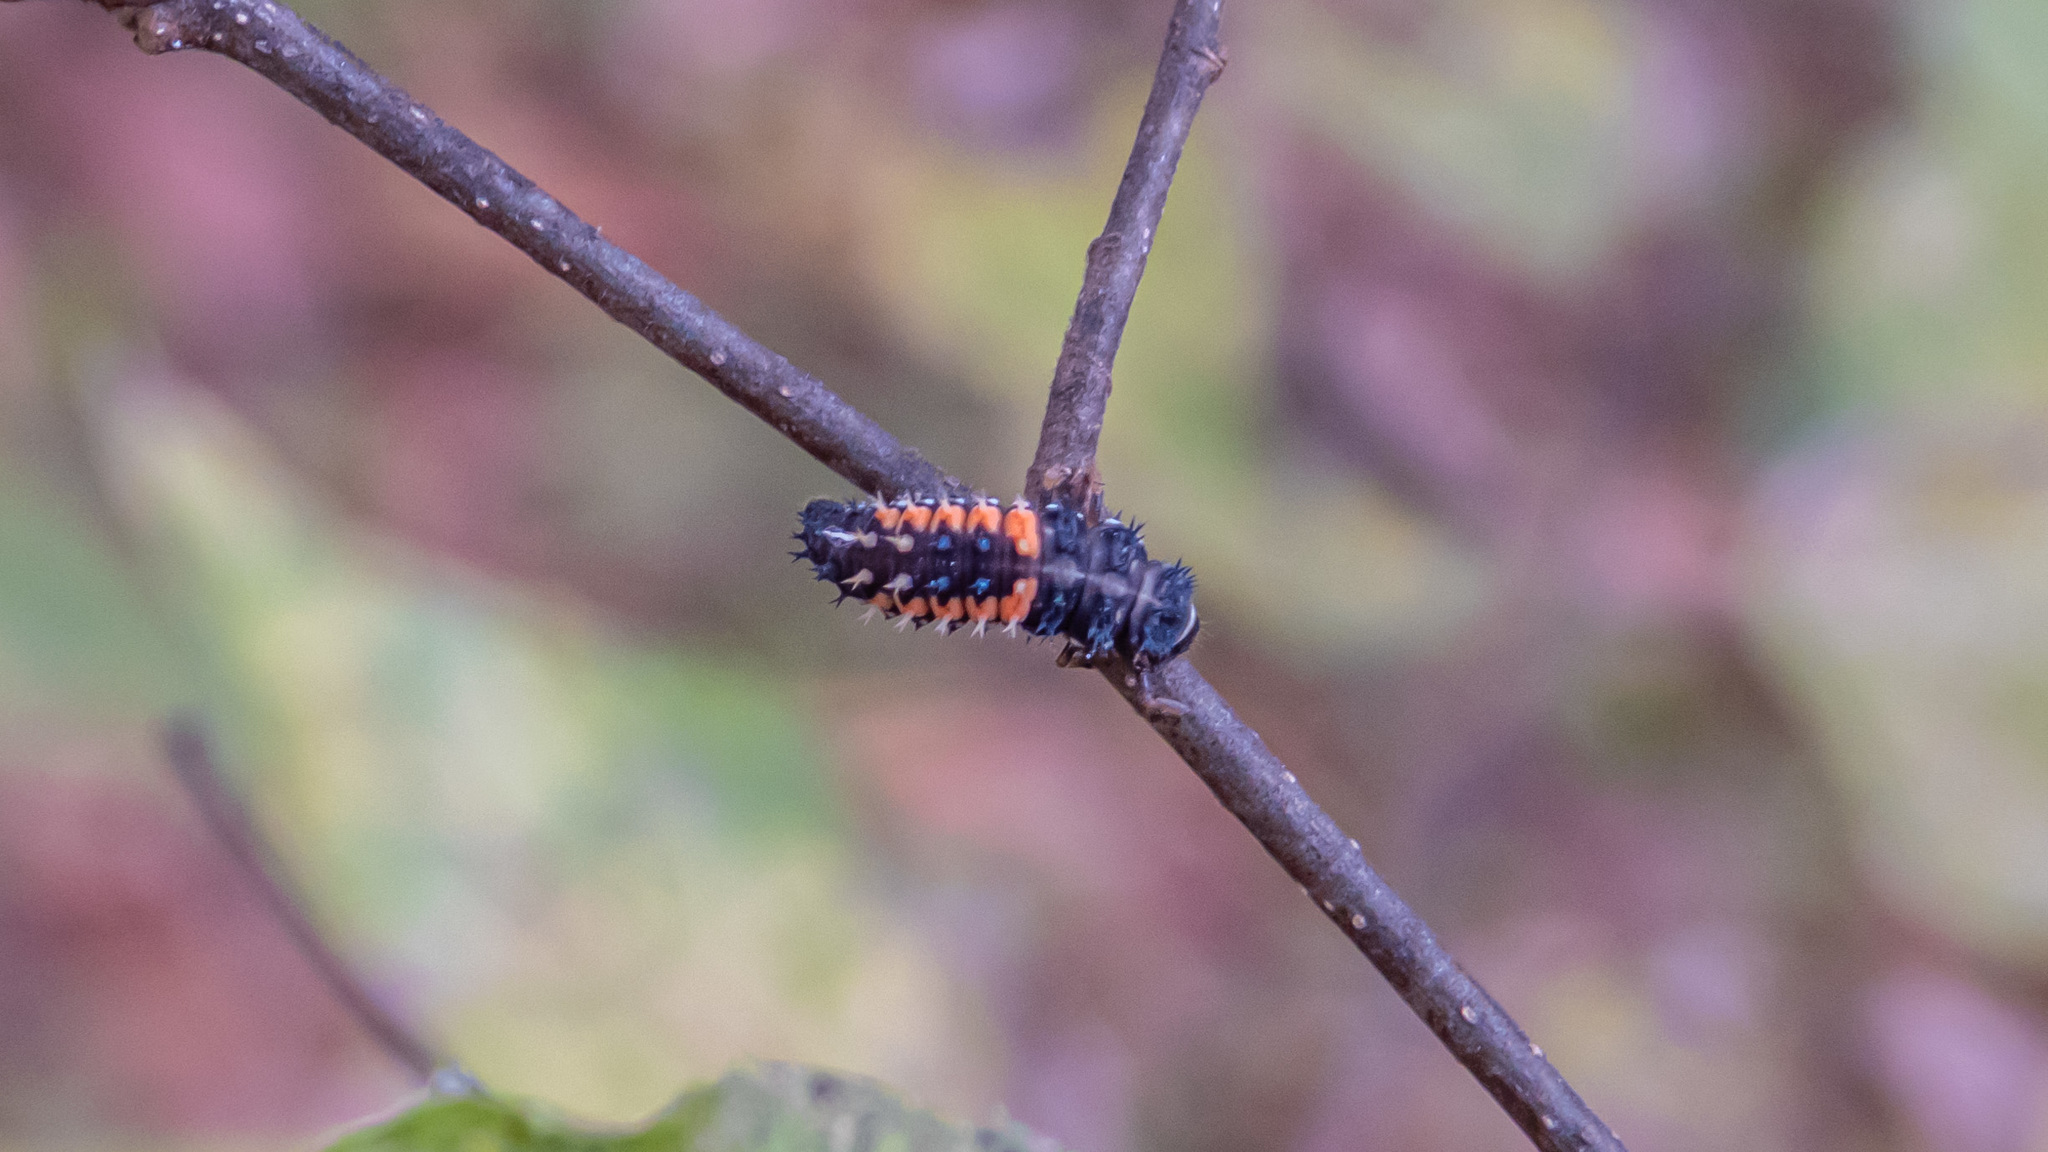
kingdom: Animalia
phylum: Arthropoda
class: Insecta
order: Coleoptera
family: Coccinellidae
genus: Harmonia
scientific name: Harmonia axyridis
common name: Harlequin ladybird
